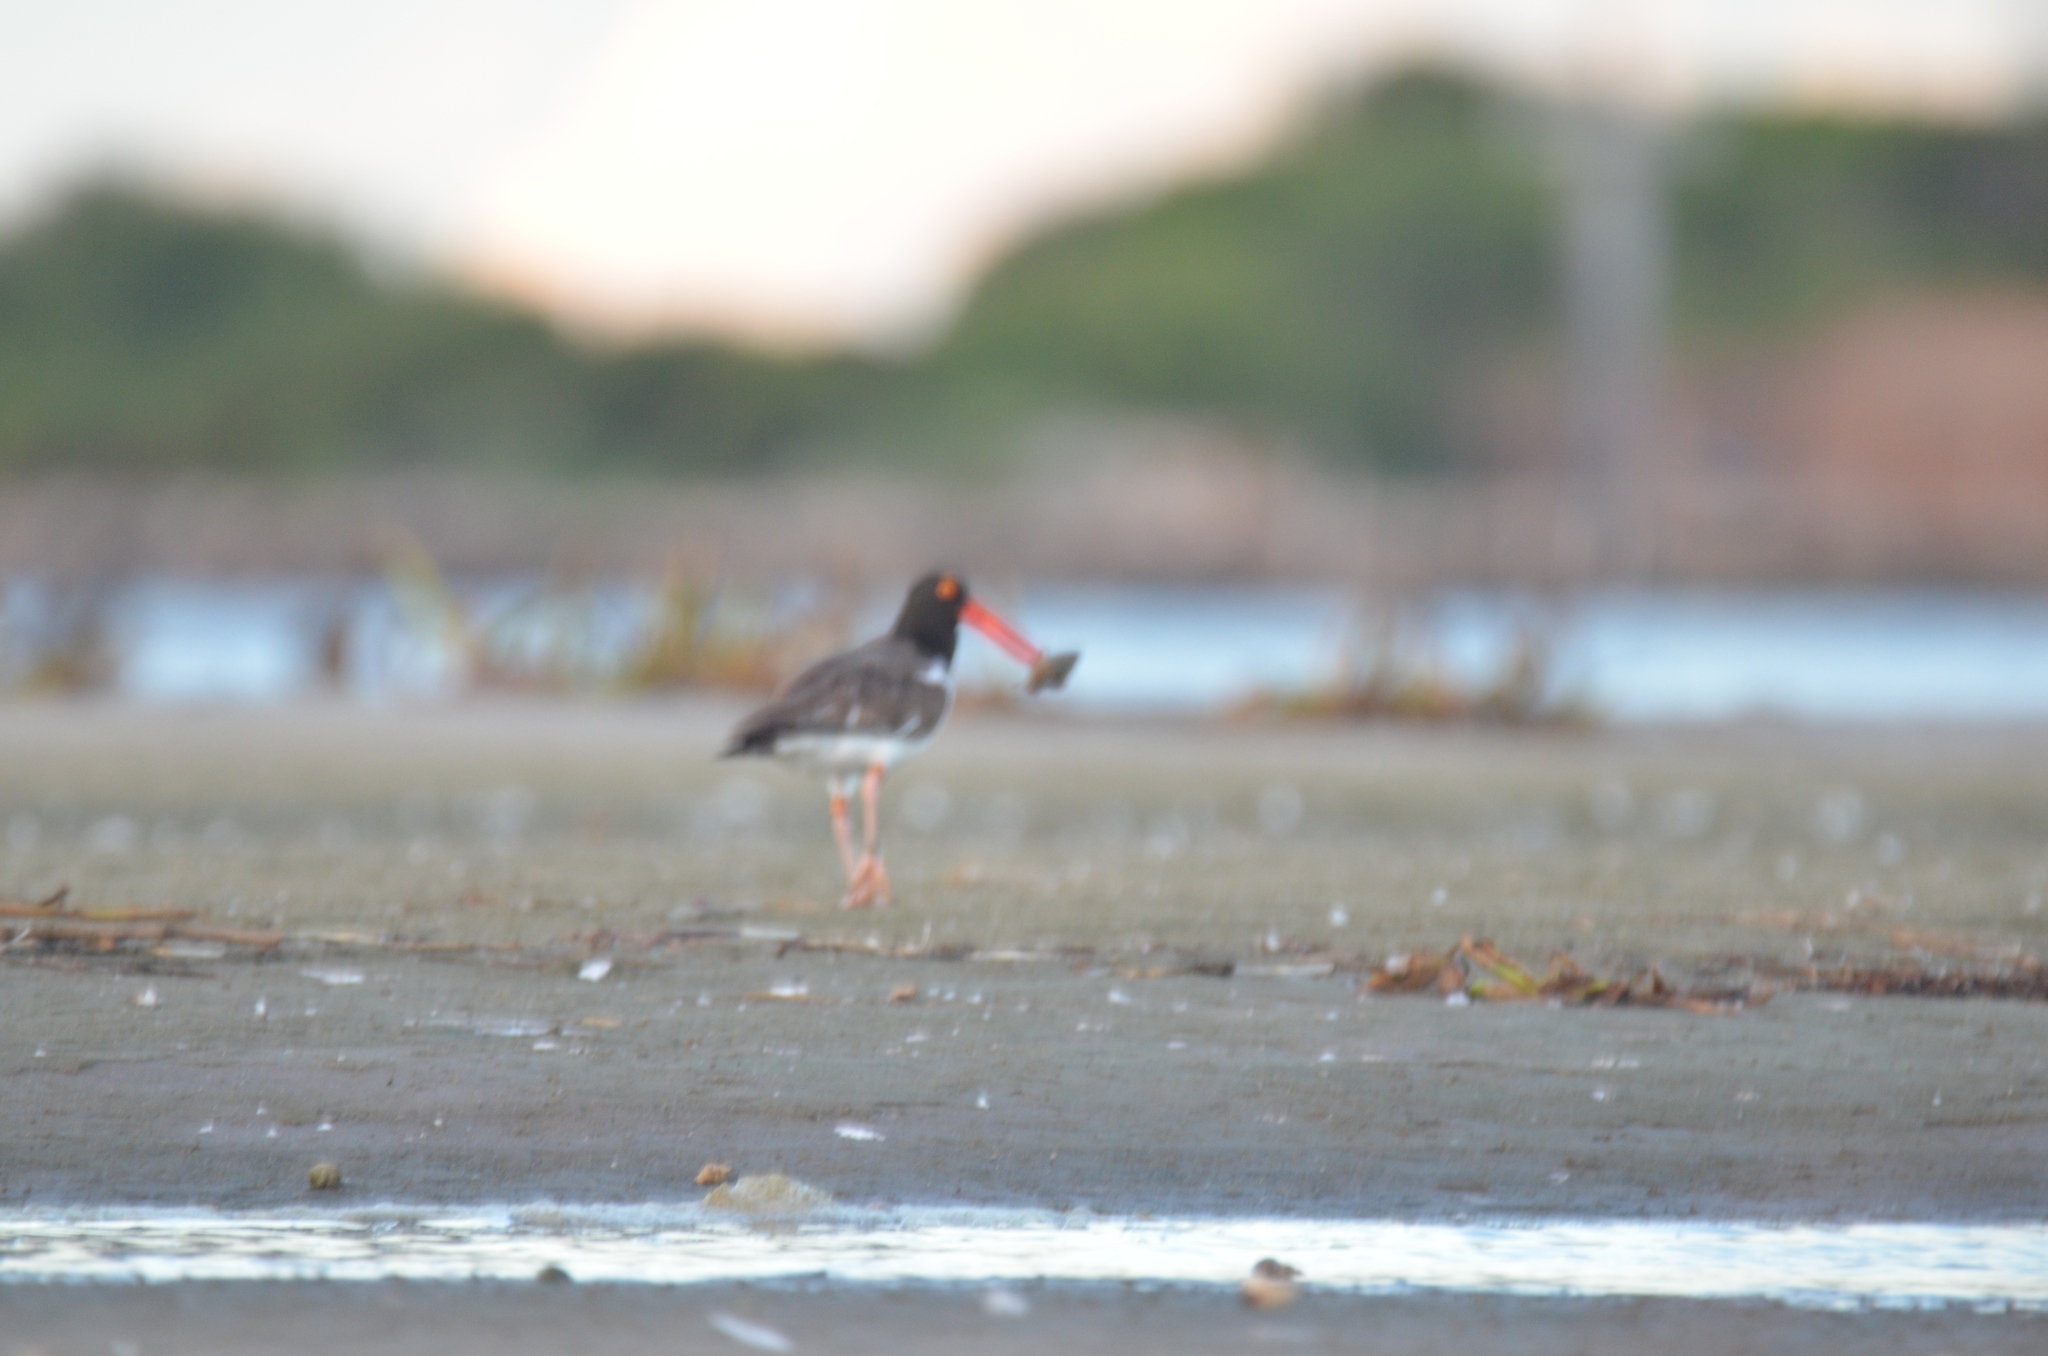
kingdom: Animalia
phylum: Chordata
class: Aves
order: Charadriiformes
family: Haematopodidae
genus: Haematopus
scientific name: Haematopus palliatus
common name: American oystercatcher
